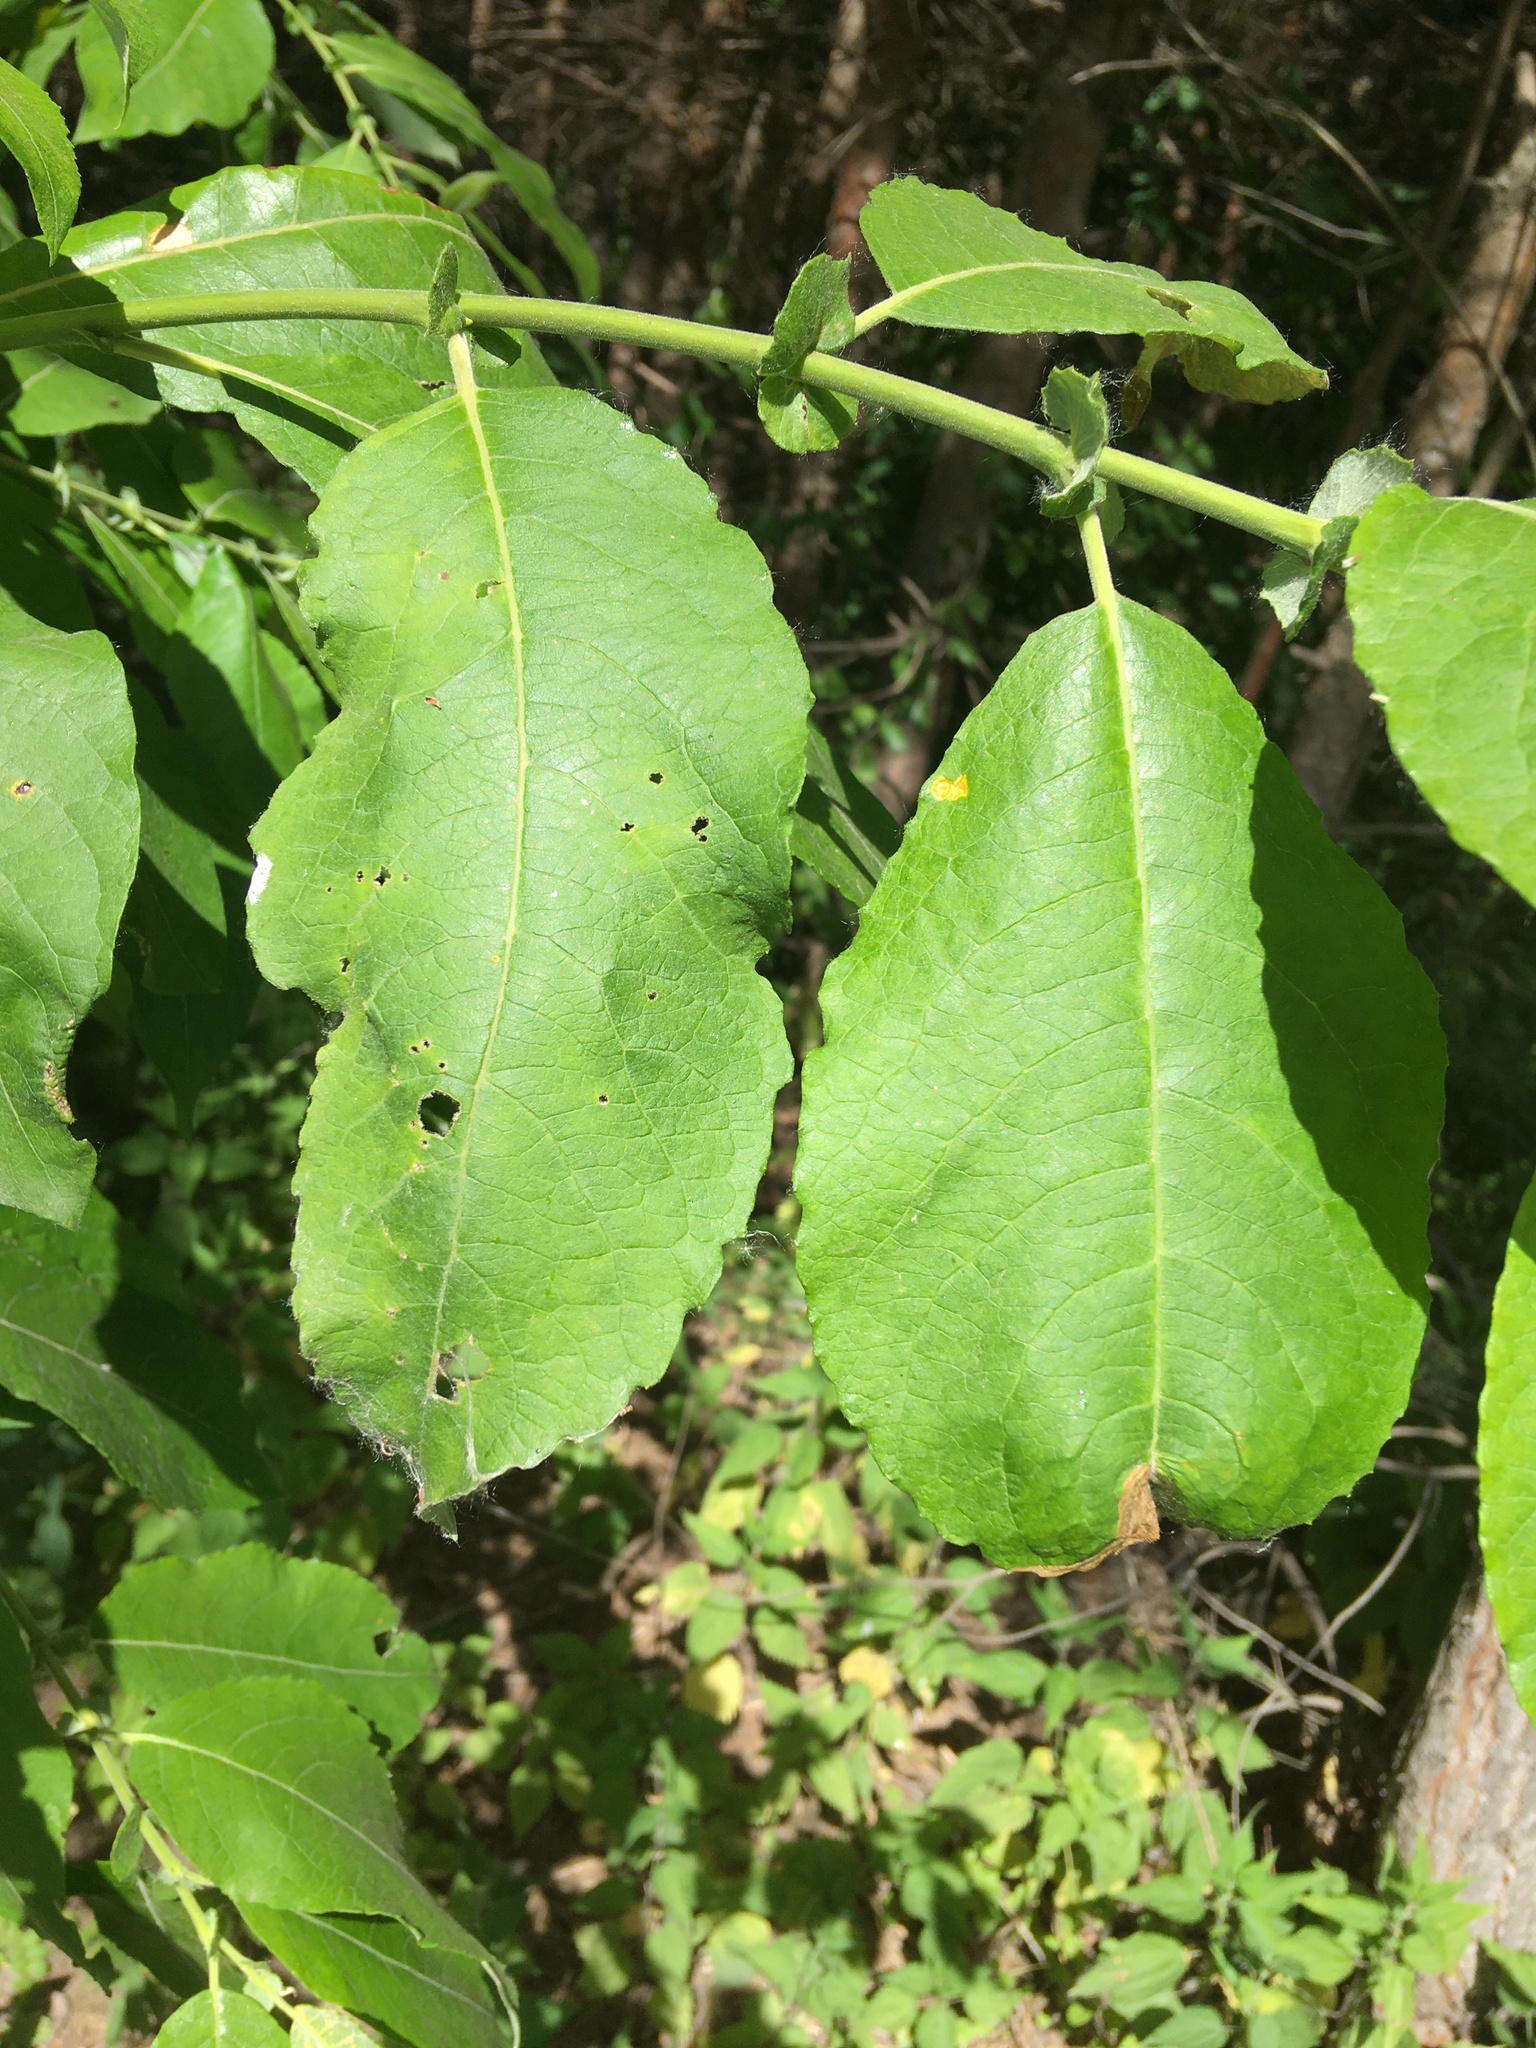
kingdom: Plantae
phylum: Tracheophyta
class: Magnoliopsida
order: Malpighiales
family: Salicaceae
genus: Salix
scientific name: Salix caprea
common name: Goat willow
